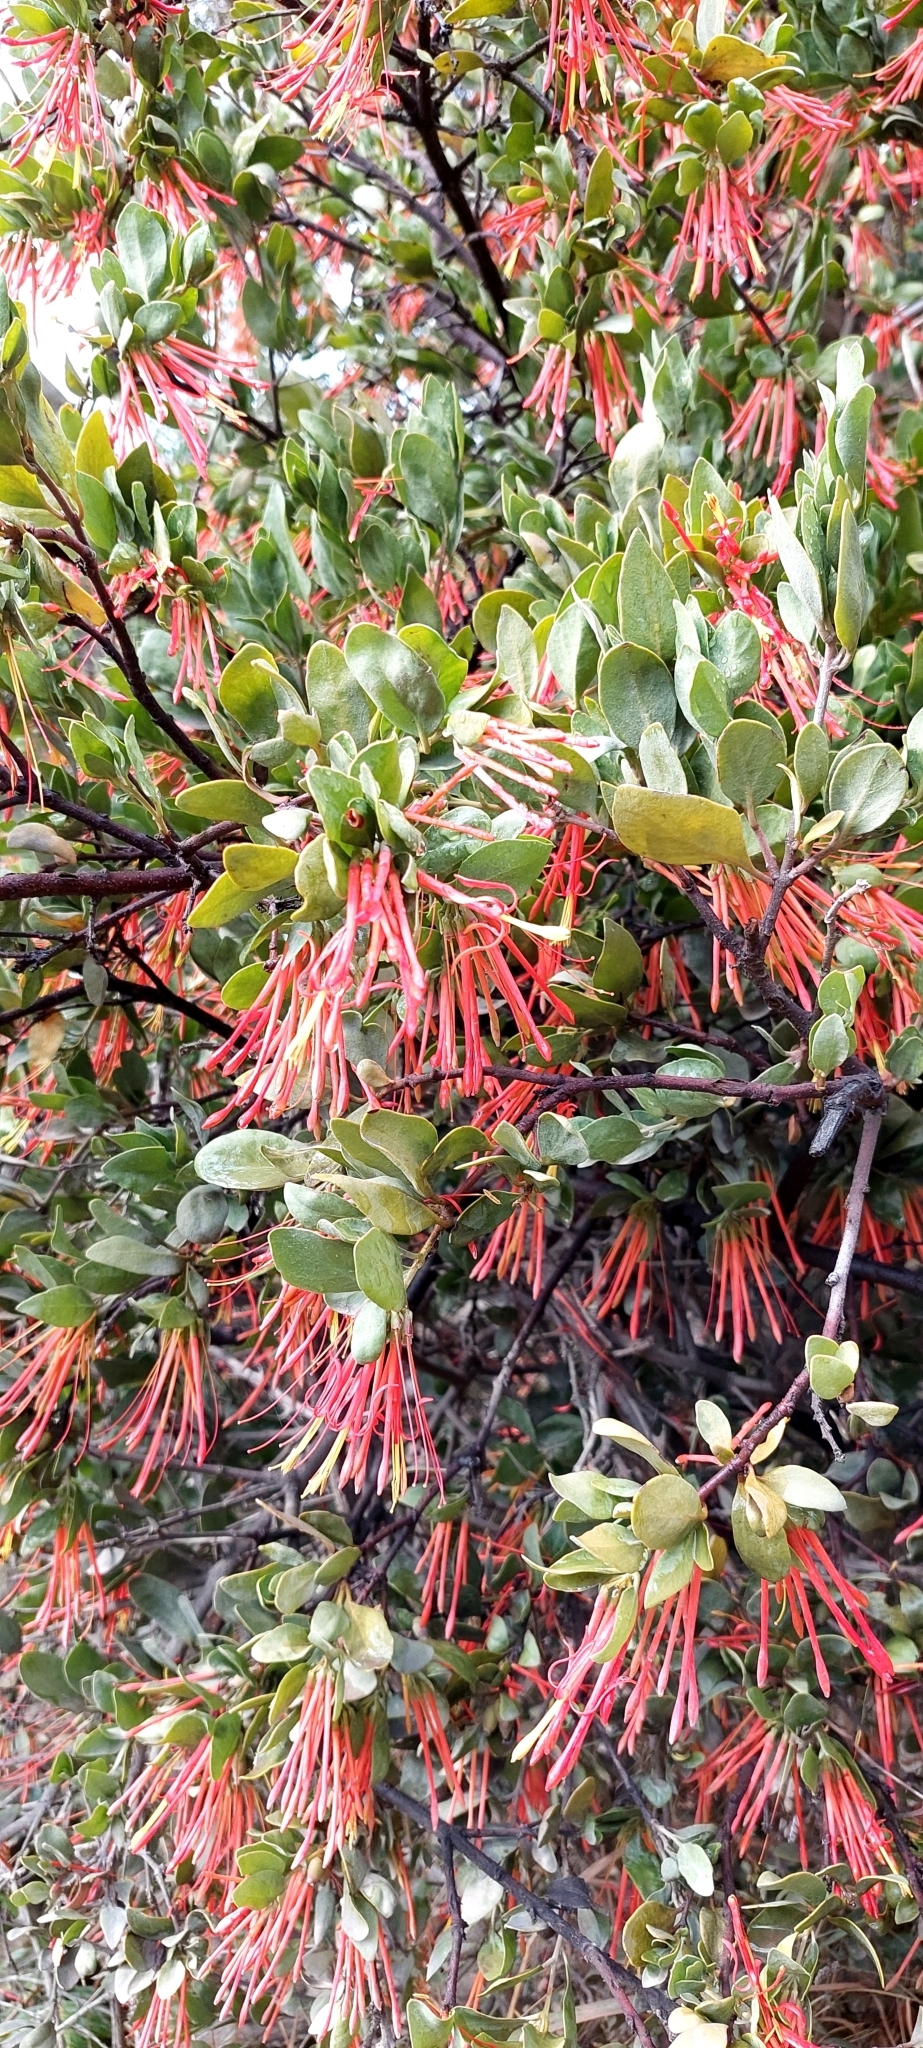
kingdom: Plantae
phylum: Tracheophyta
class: Magnoliopsida
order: Santalales
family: Loranthaceae
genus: Tristerix
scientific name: Tristerix corymbosus
